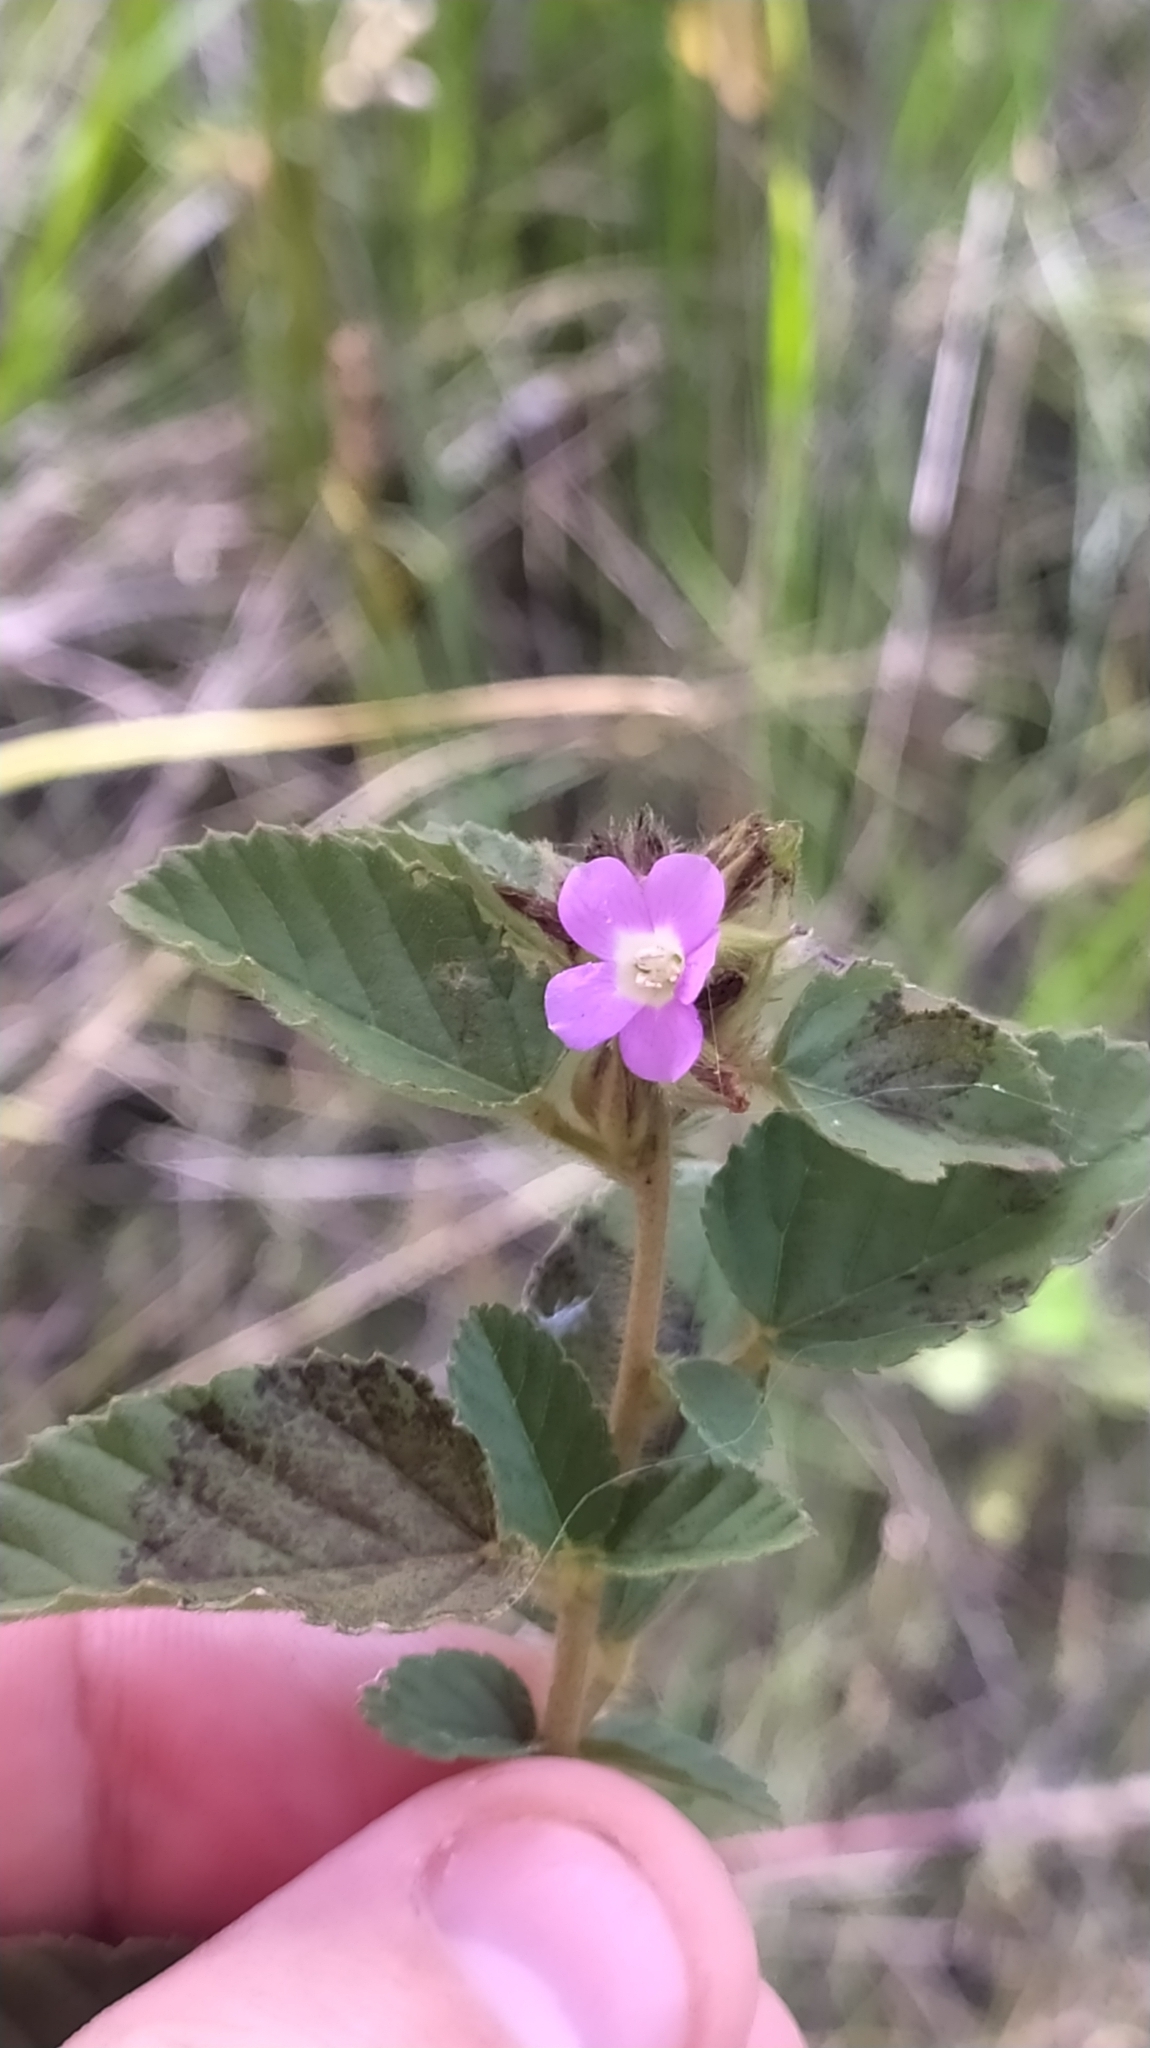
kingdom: Plantae
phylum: Tracheophyta
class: Magnoliopsida
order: Malvales
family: Malvaceae
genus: Melochia
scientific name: Melochia spicata
